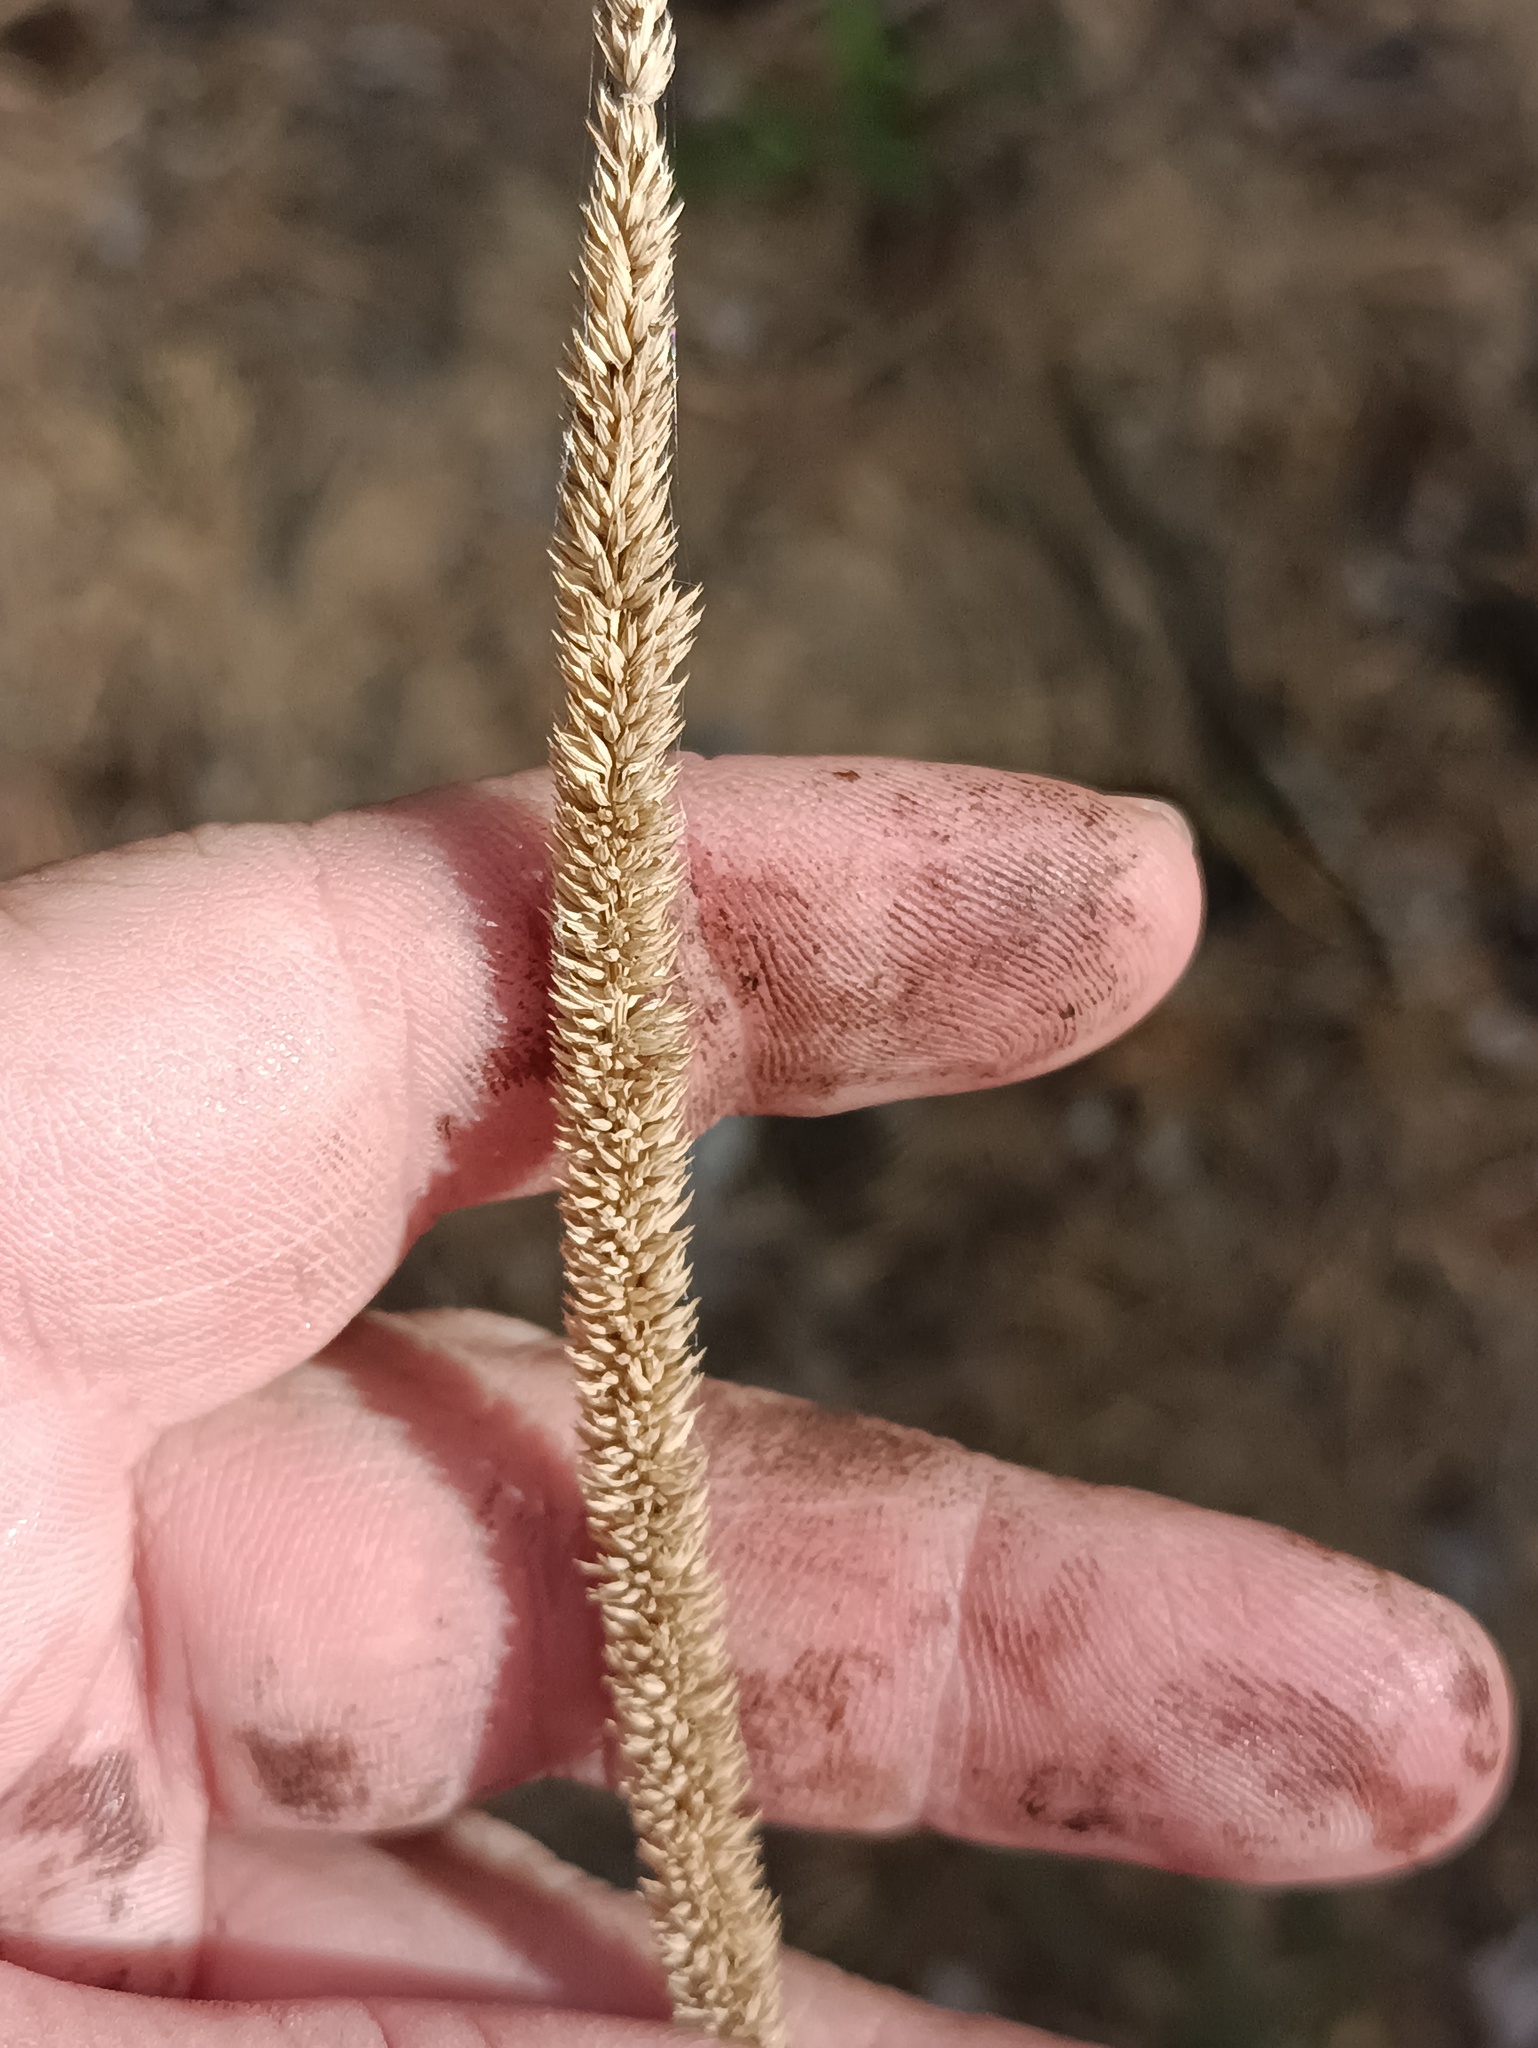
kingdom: Plantae
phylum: Tracheophyta
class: Liliopsida
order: Poales
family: Poaceae
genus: Phleum
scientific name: Phleum phleoides
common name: Purple-stem cat's-tail
